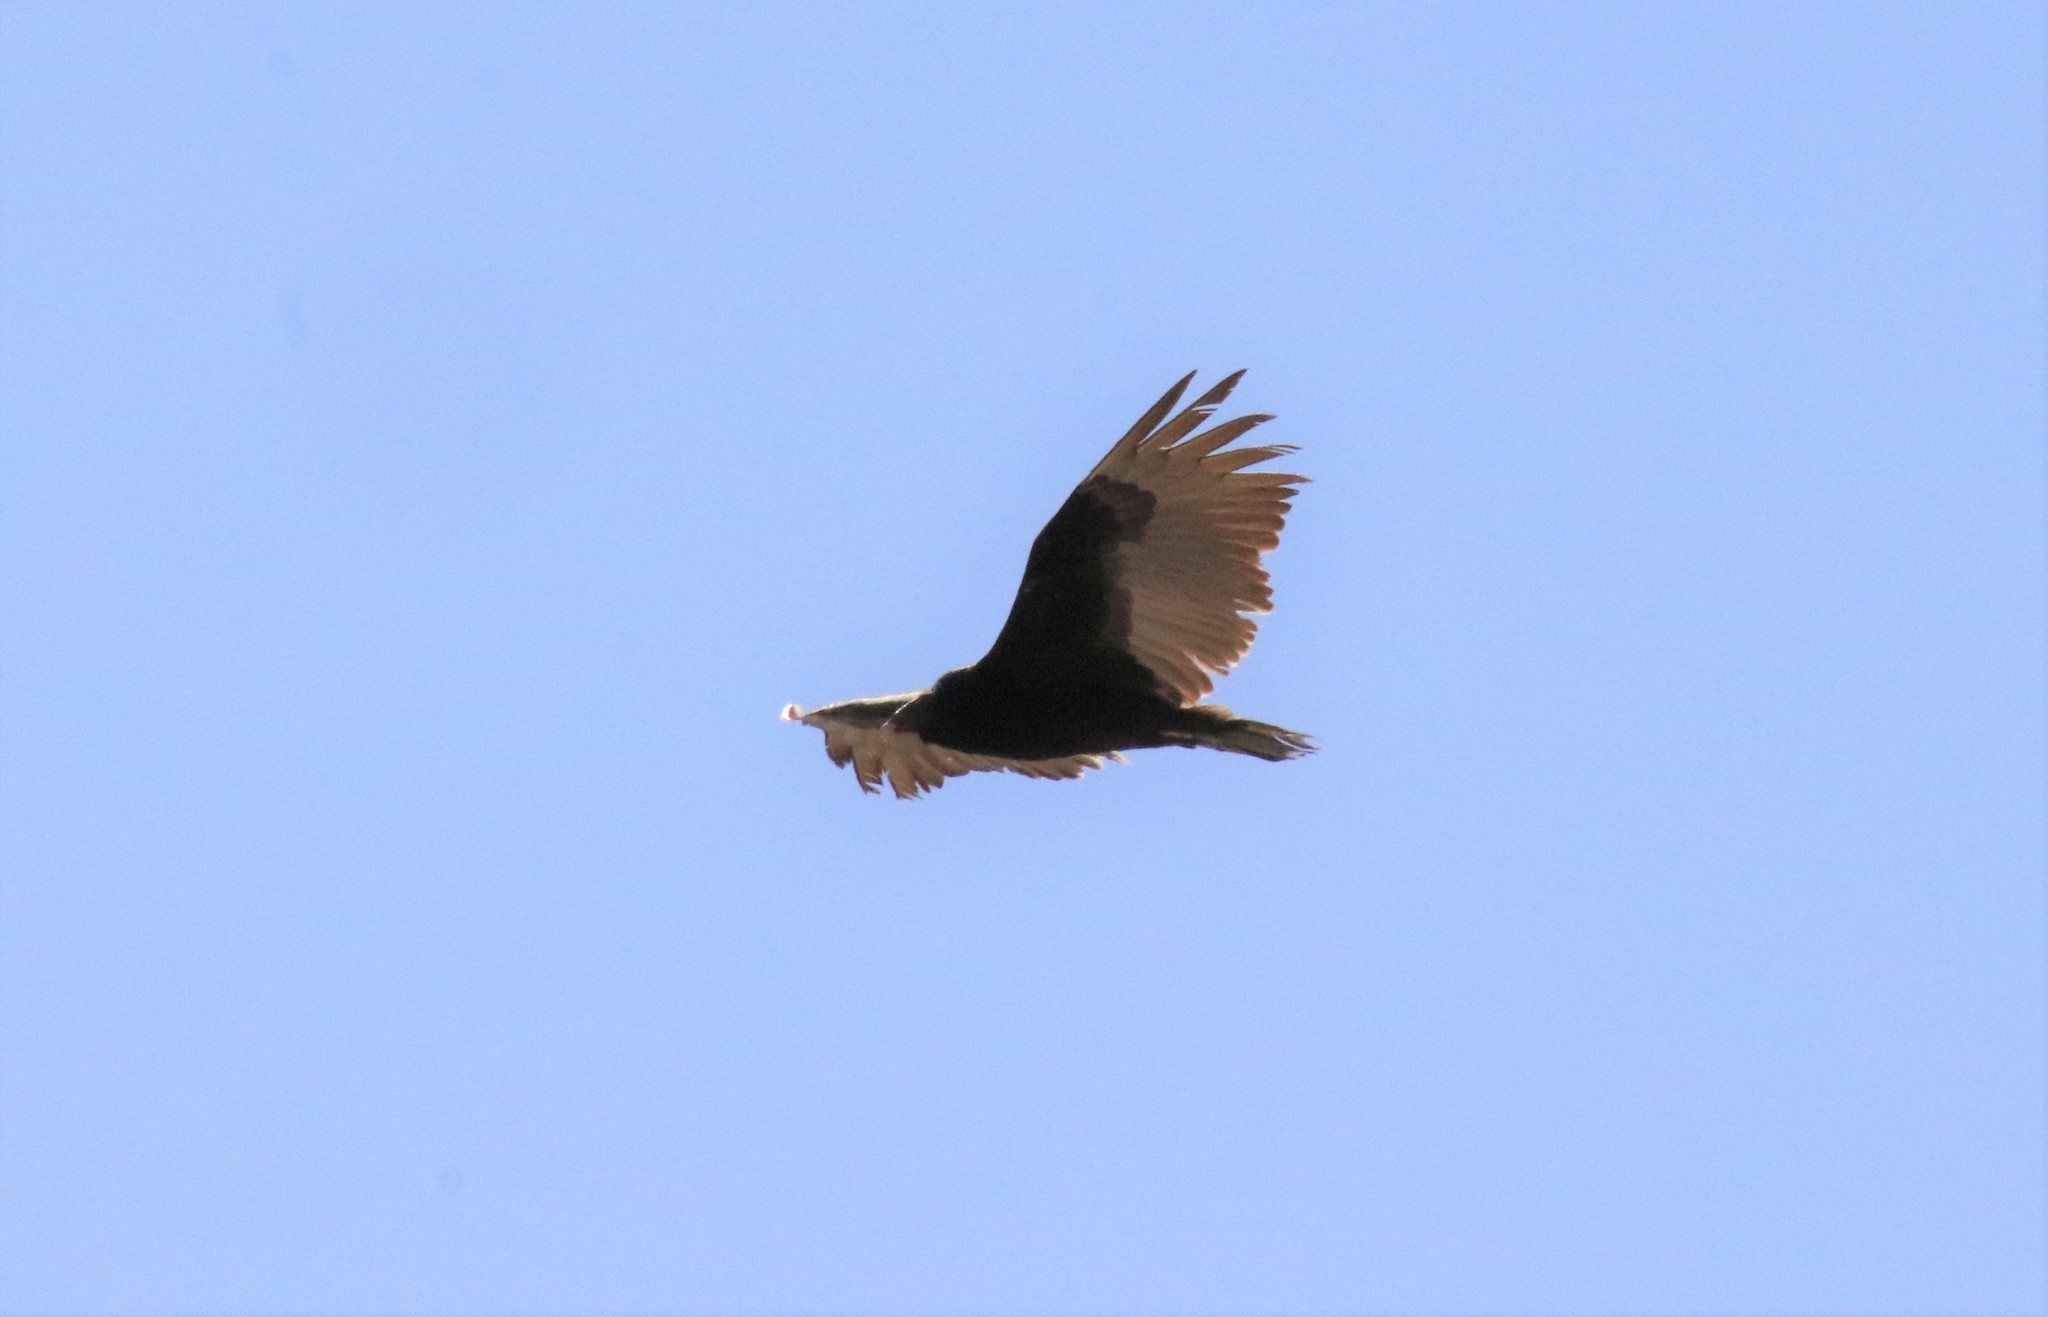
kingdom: Animalia
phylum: Chordata
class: Aves
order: Accipitriformes
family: Cathartidae
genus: Cathartes
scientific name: Cathartes aura
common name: Turkey vulture
